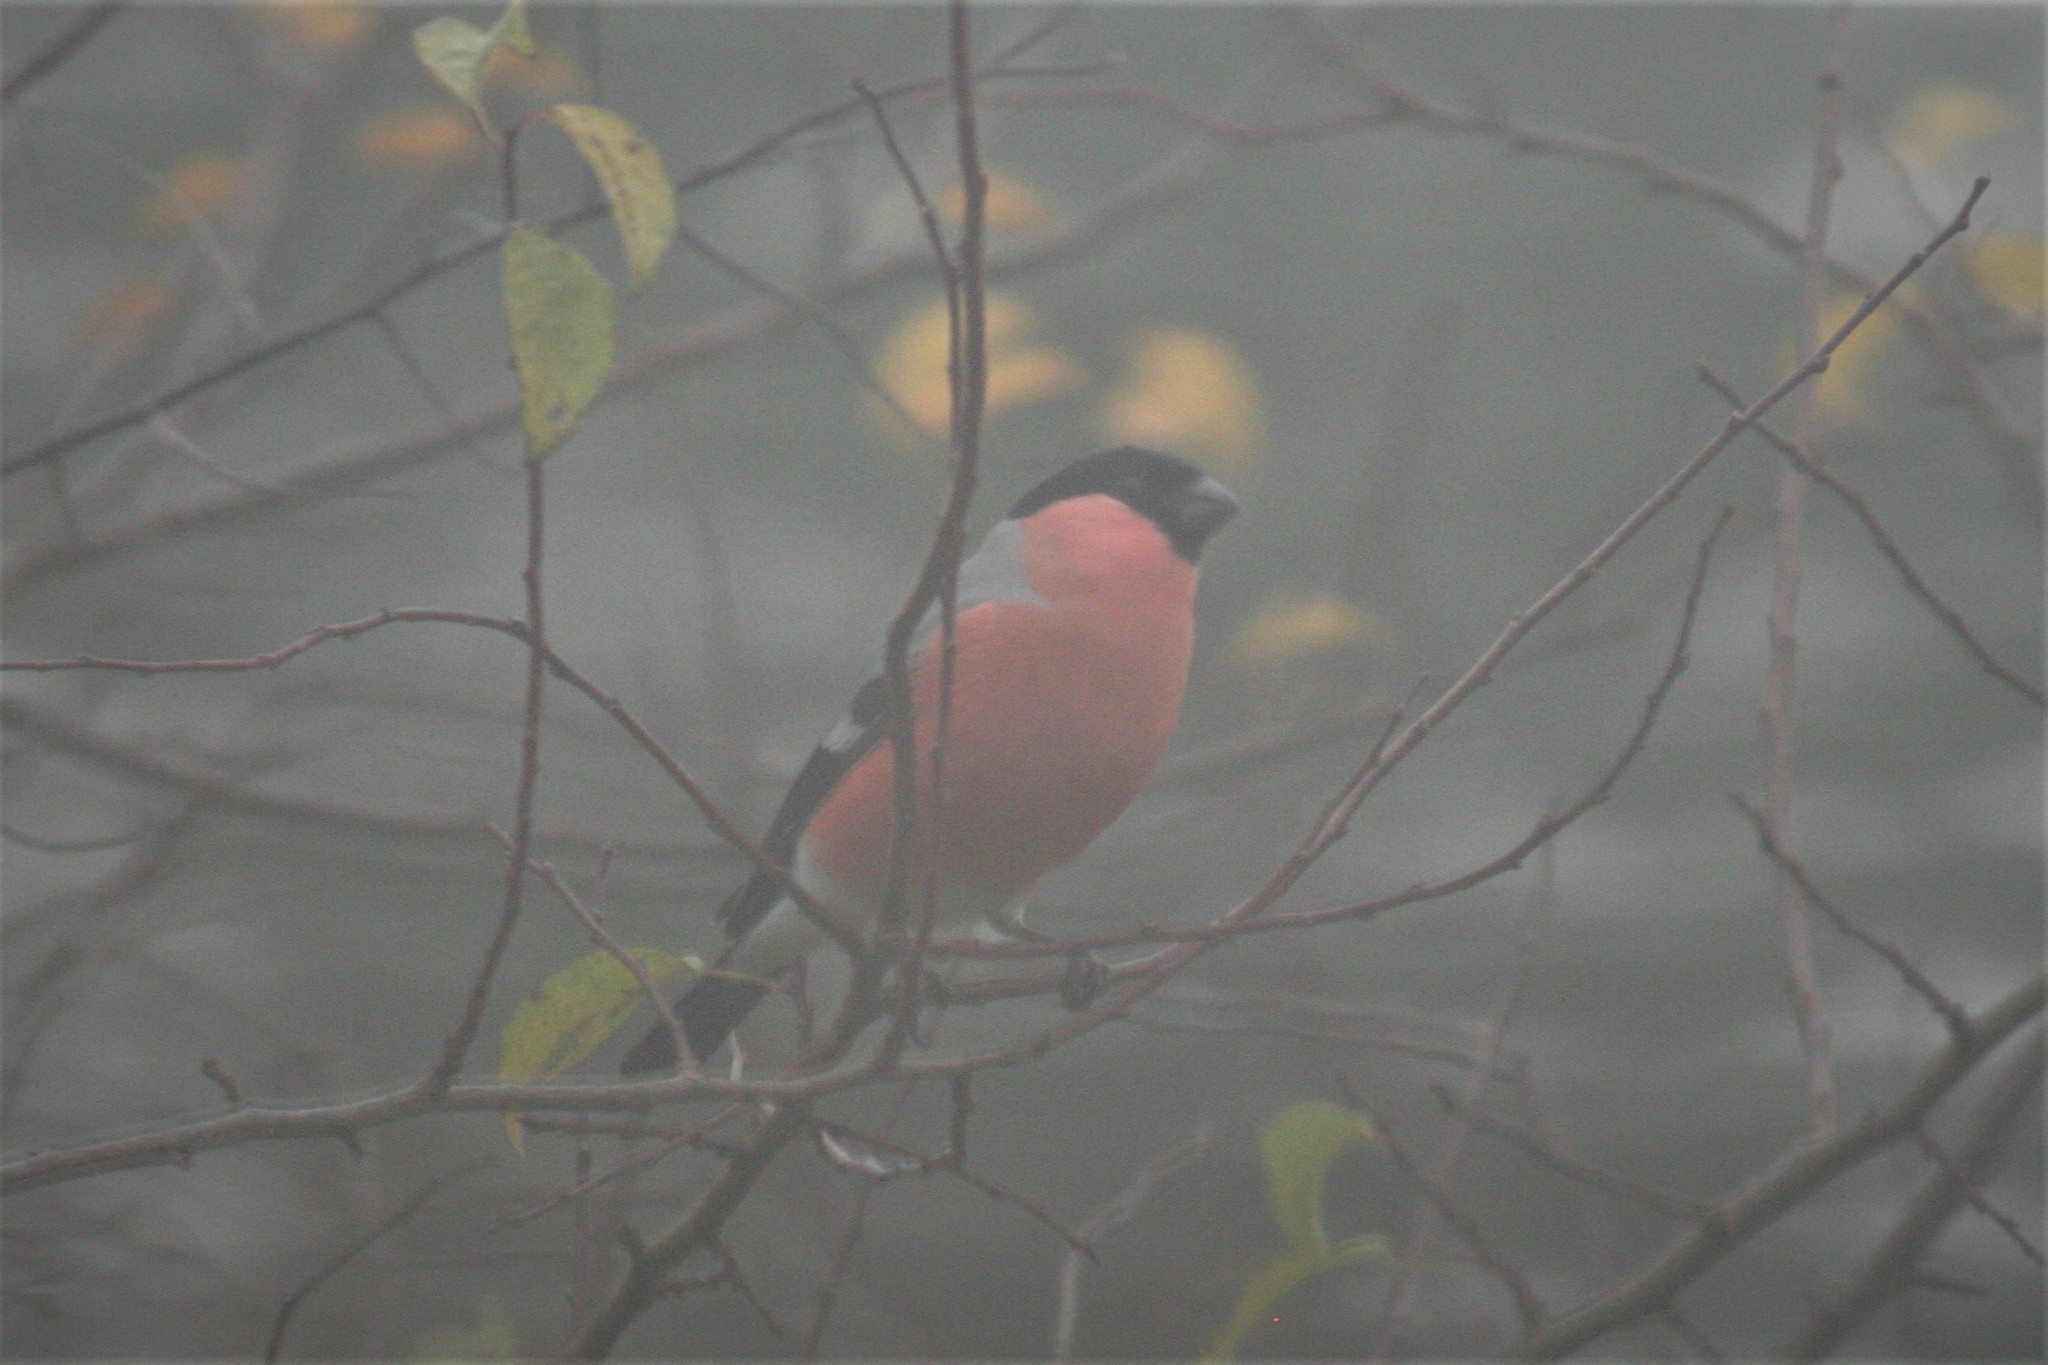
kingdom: Animalia
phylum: Chordata
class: Aves
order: Passeriformes
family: Fringillidae
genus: Pyrrhula
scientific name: Pyrrhula pyrrhula
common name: Eurasian bullfinch
